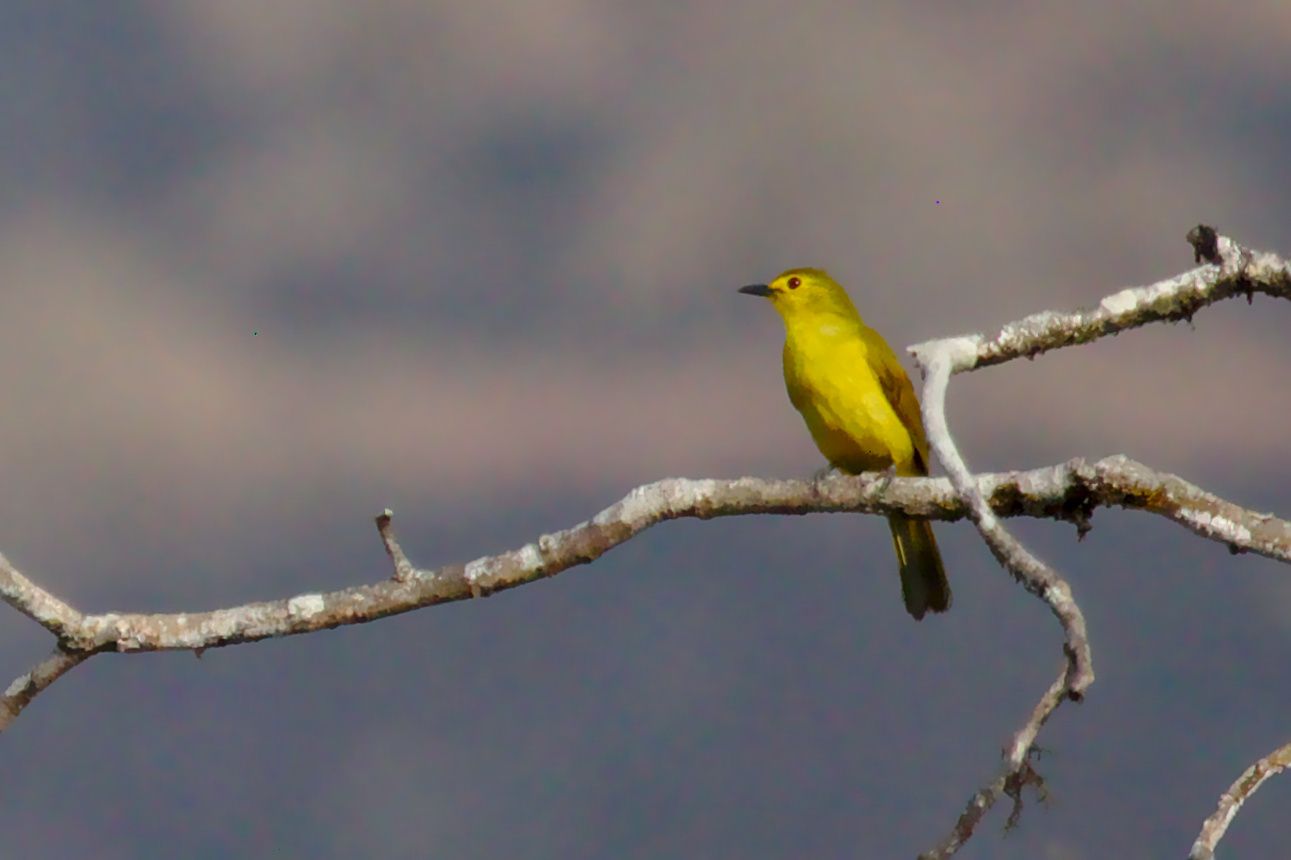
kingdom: Animalia
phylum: Chordata
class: Aves
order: Passeriformes
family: Pycnonotidae
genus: Acritillas
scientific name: Acritillas indica
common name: Yellow-browed bulbul
